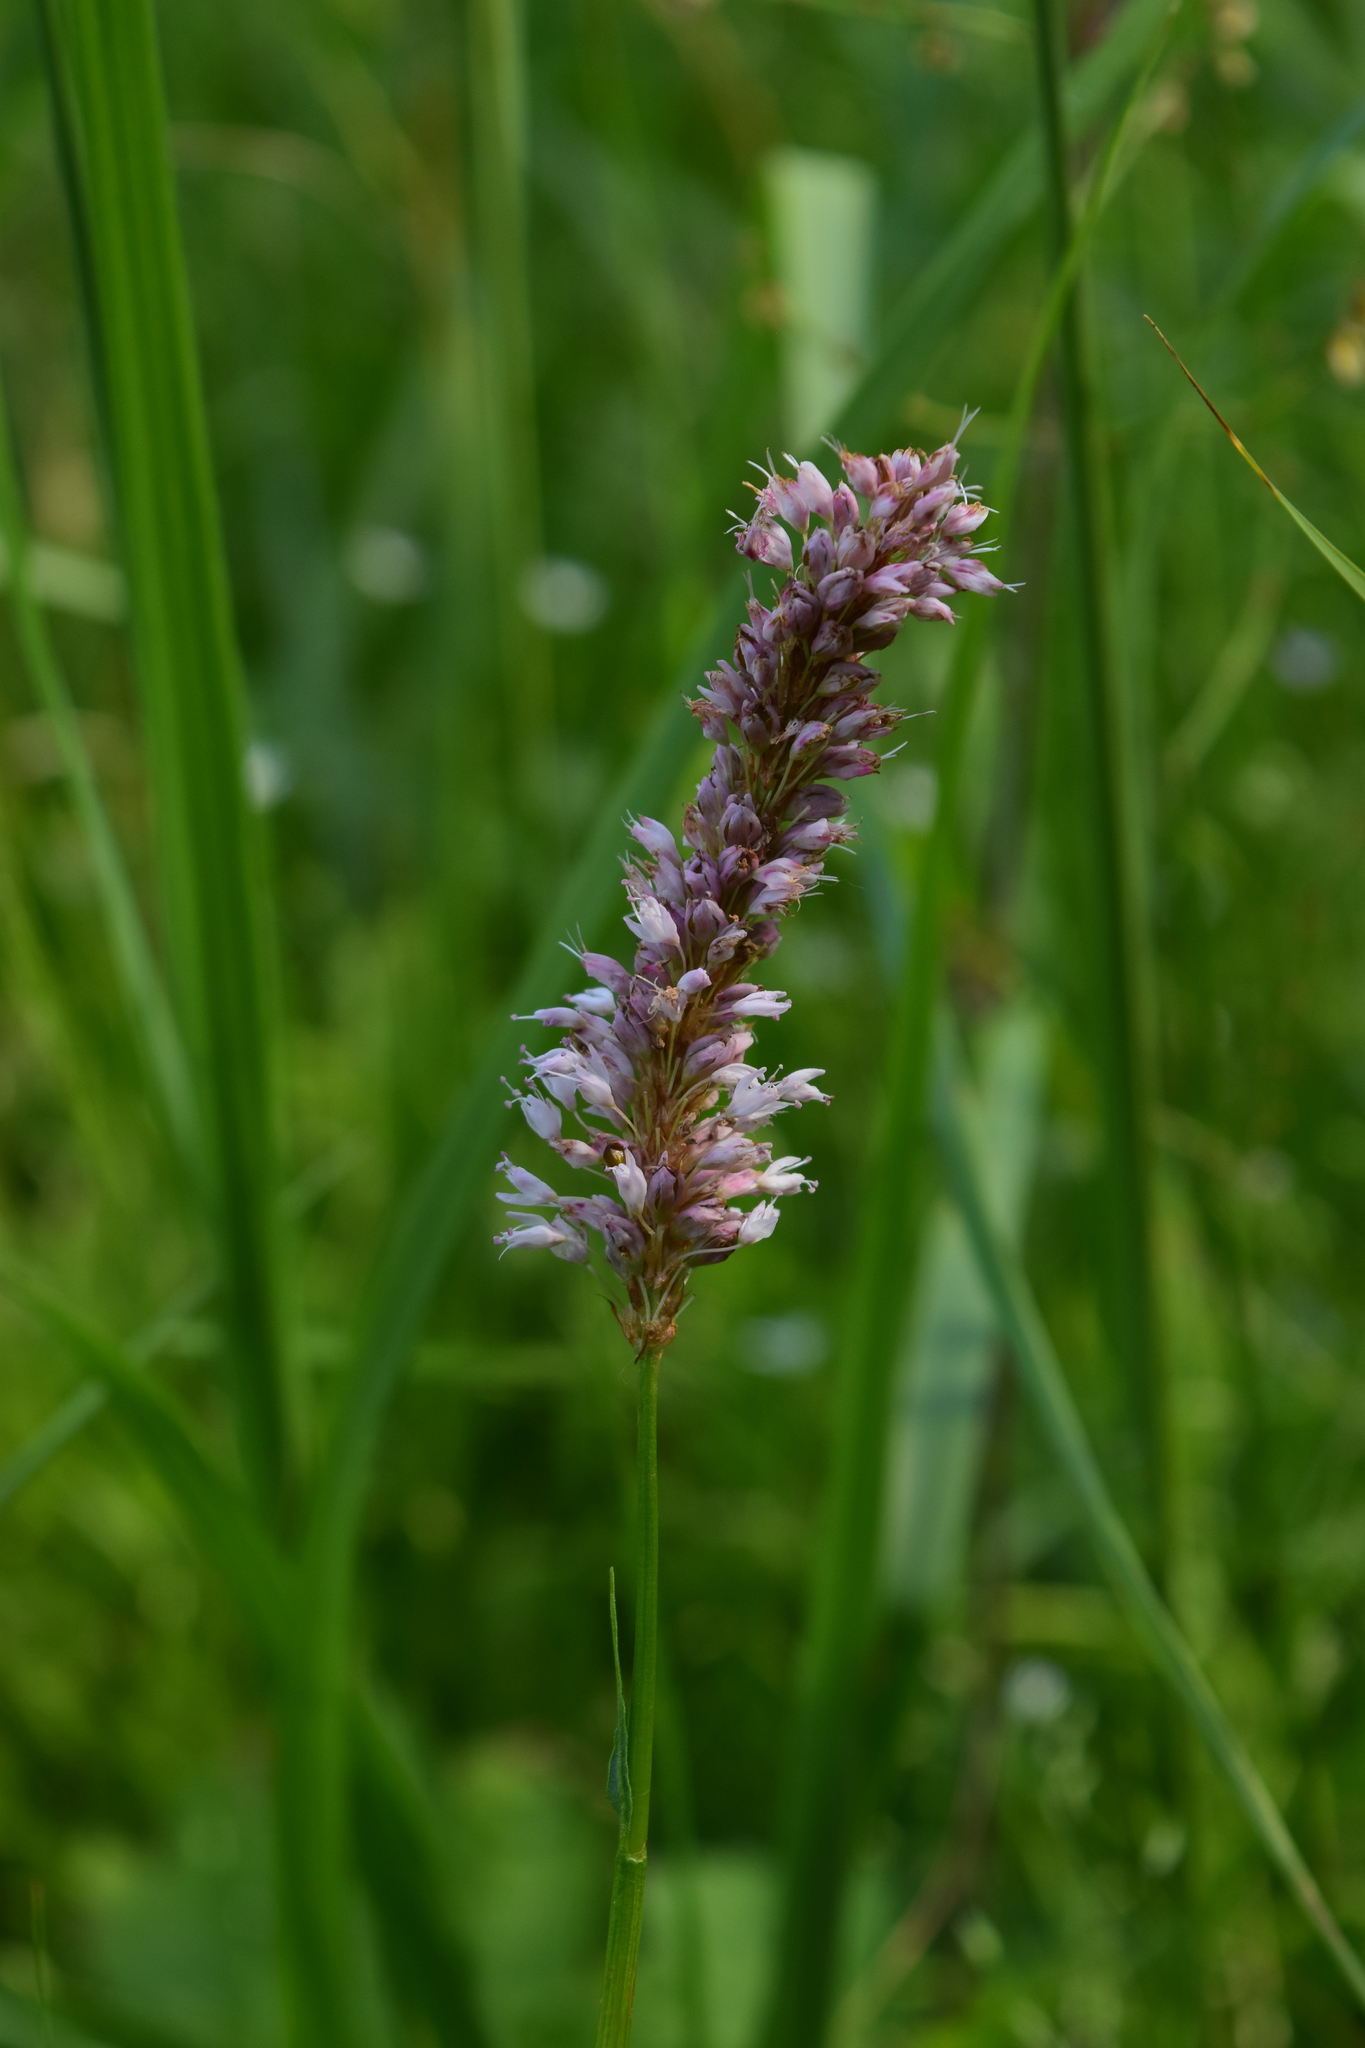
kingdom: Plantae
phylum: Tracheophyta
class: Magnoliopsida
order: Caryophyllales
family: Polygonaceae
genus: Bistorta
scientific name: Bistorta officinalis
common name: Common bistort
